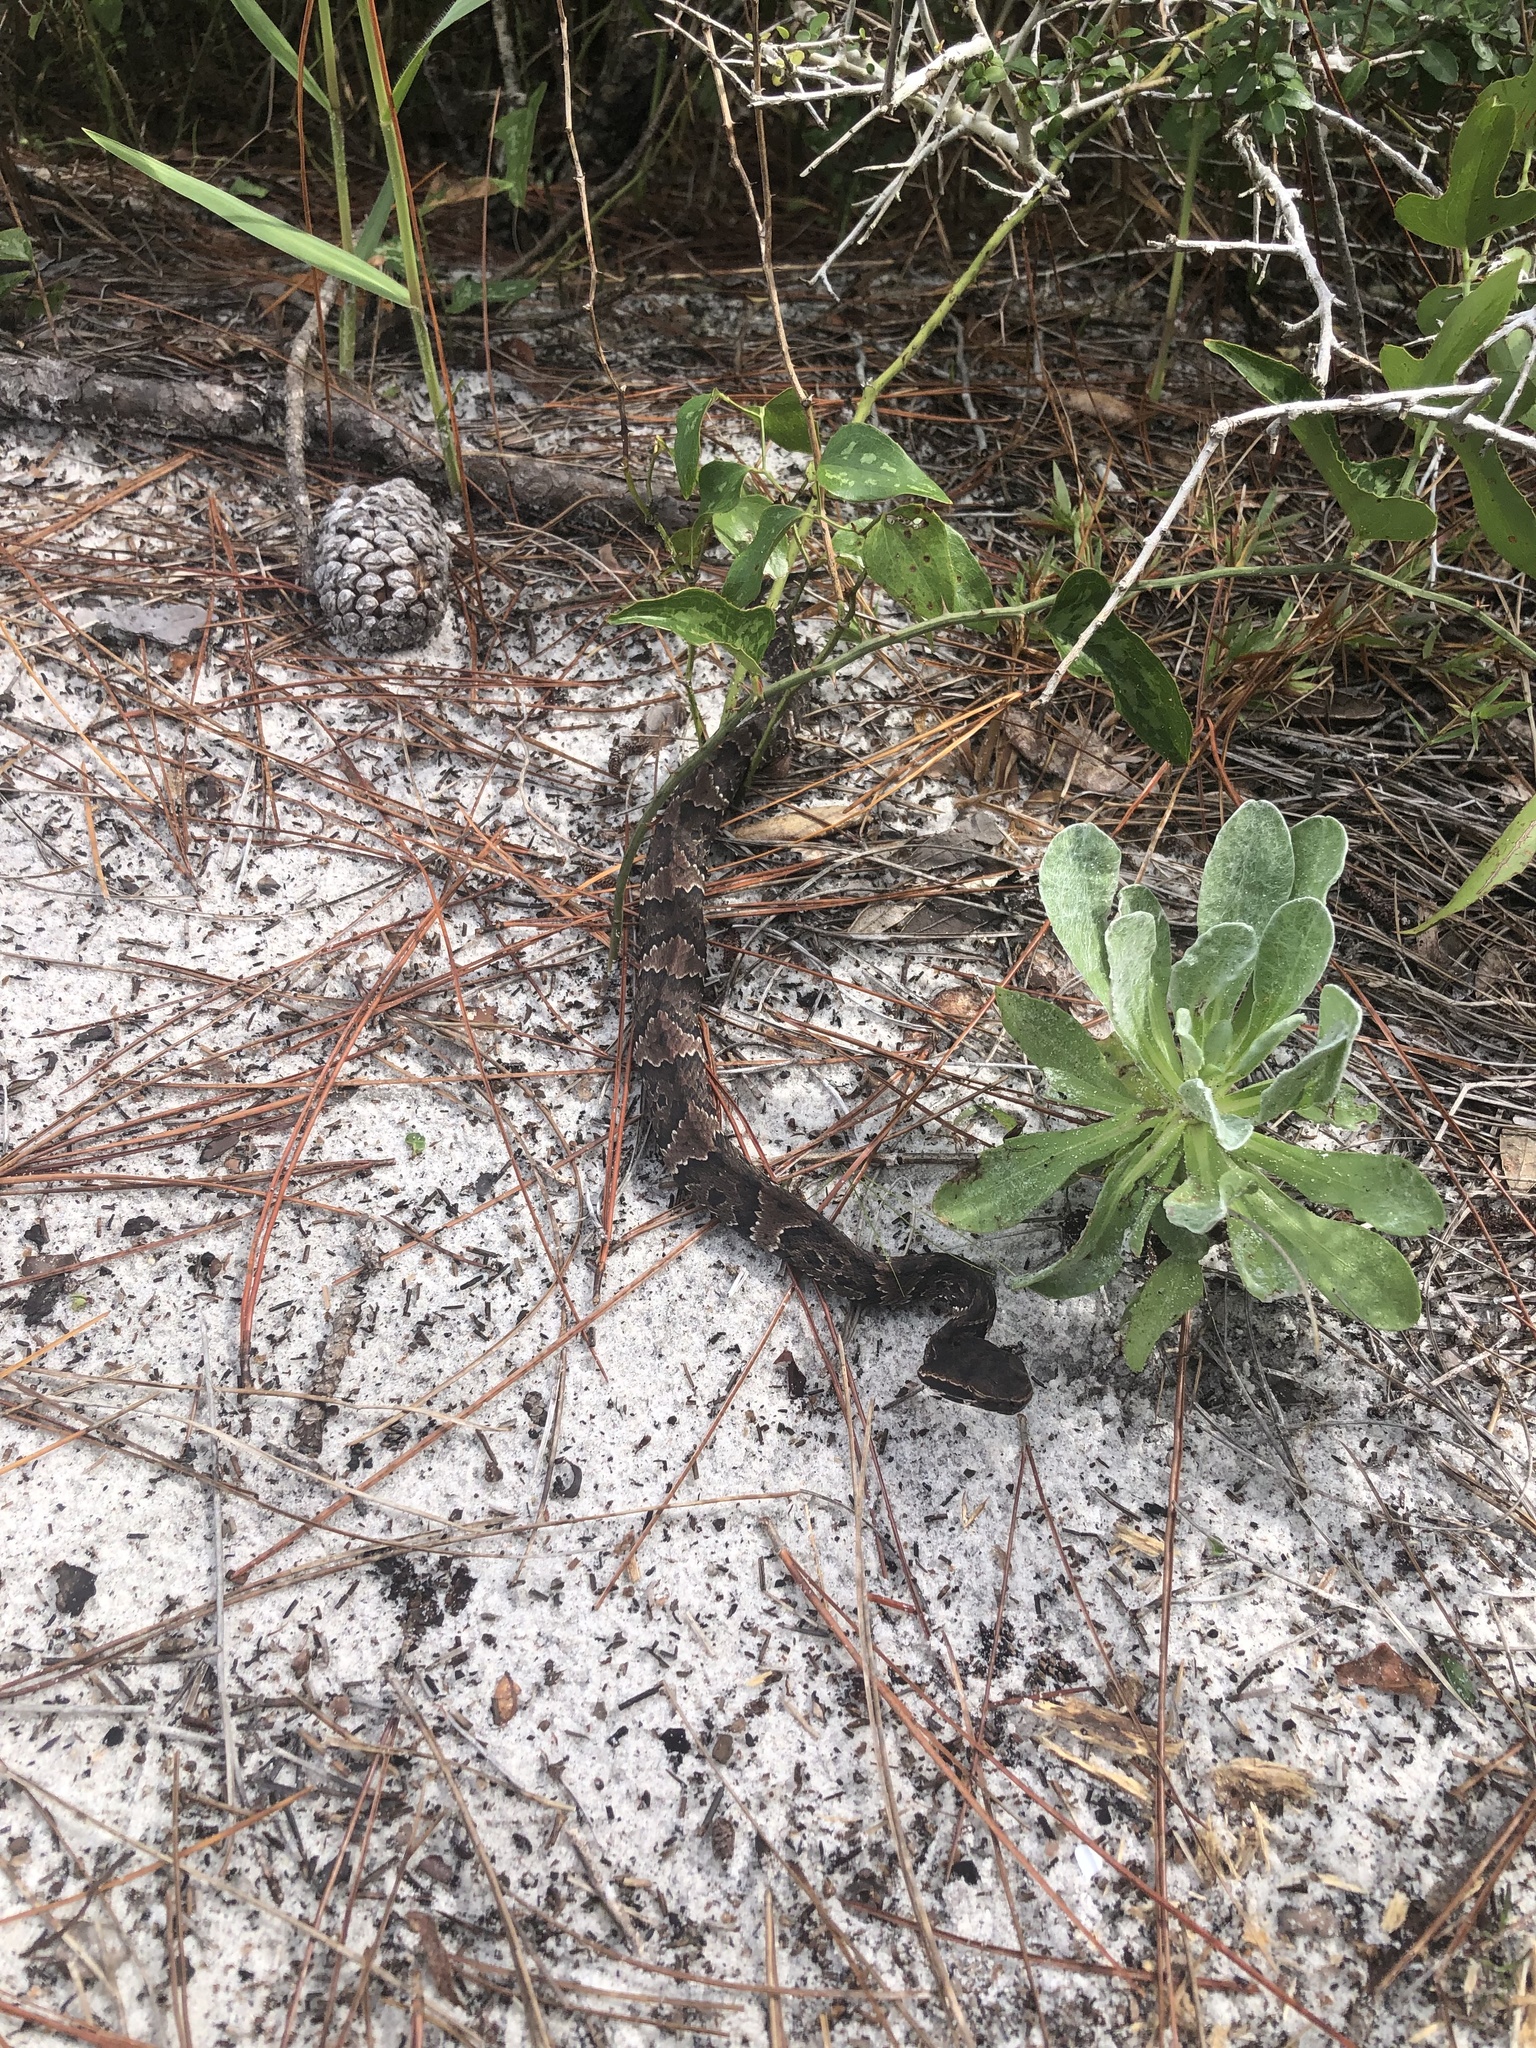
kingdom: Animalia
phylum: Chordata
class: Squamata
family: Viperidae
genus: Agkistrodon
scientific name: Agkistrodon piscivorus
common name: Cottonmouth
